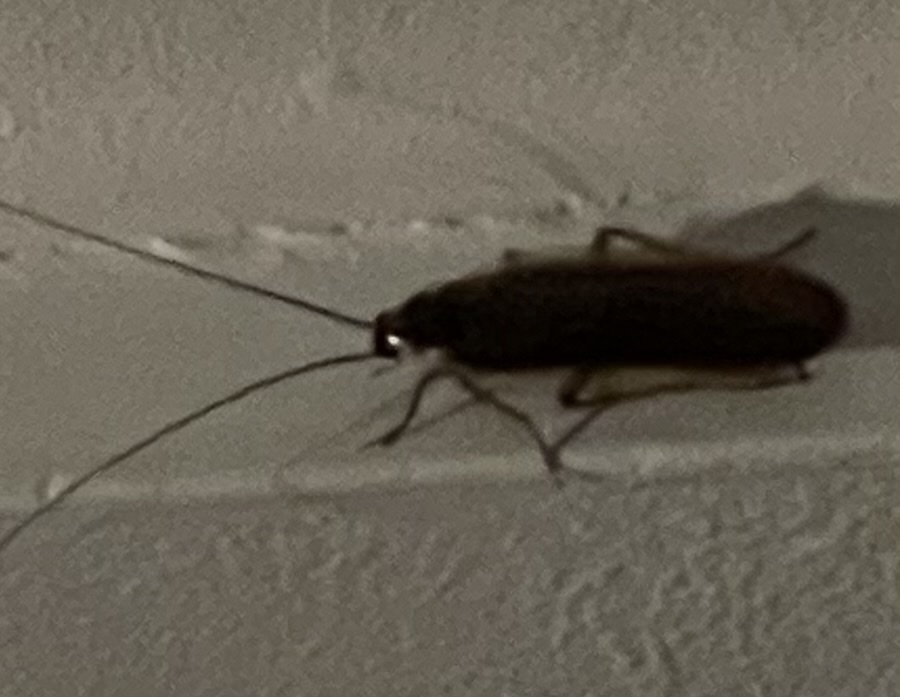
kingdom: Animalia
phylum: Arthropoda
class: Insecta
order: Blattodea
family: Ectobiidae
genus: Parcoblatta
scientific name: Parcoblatta pennsylvanica
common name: Pennsylvanian wood cockroach
